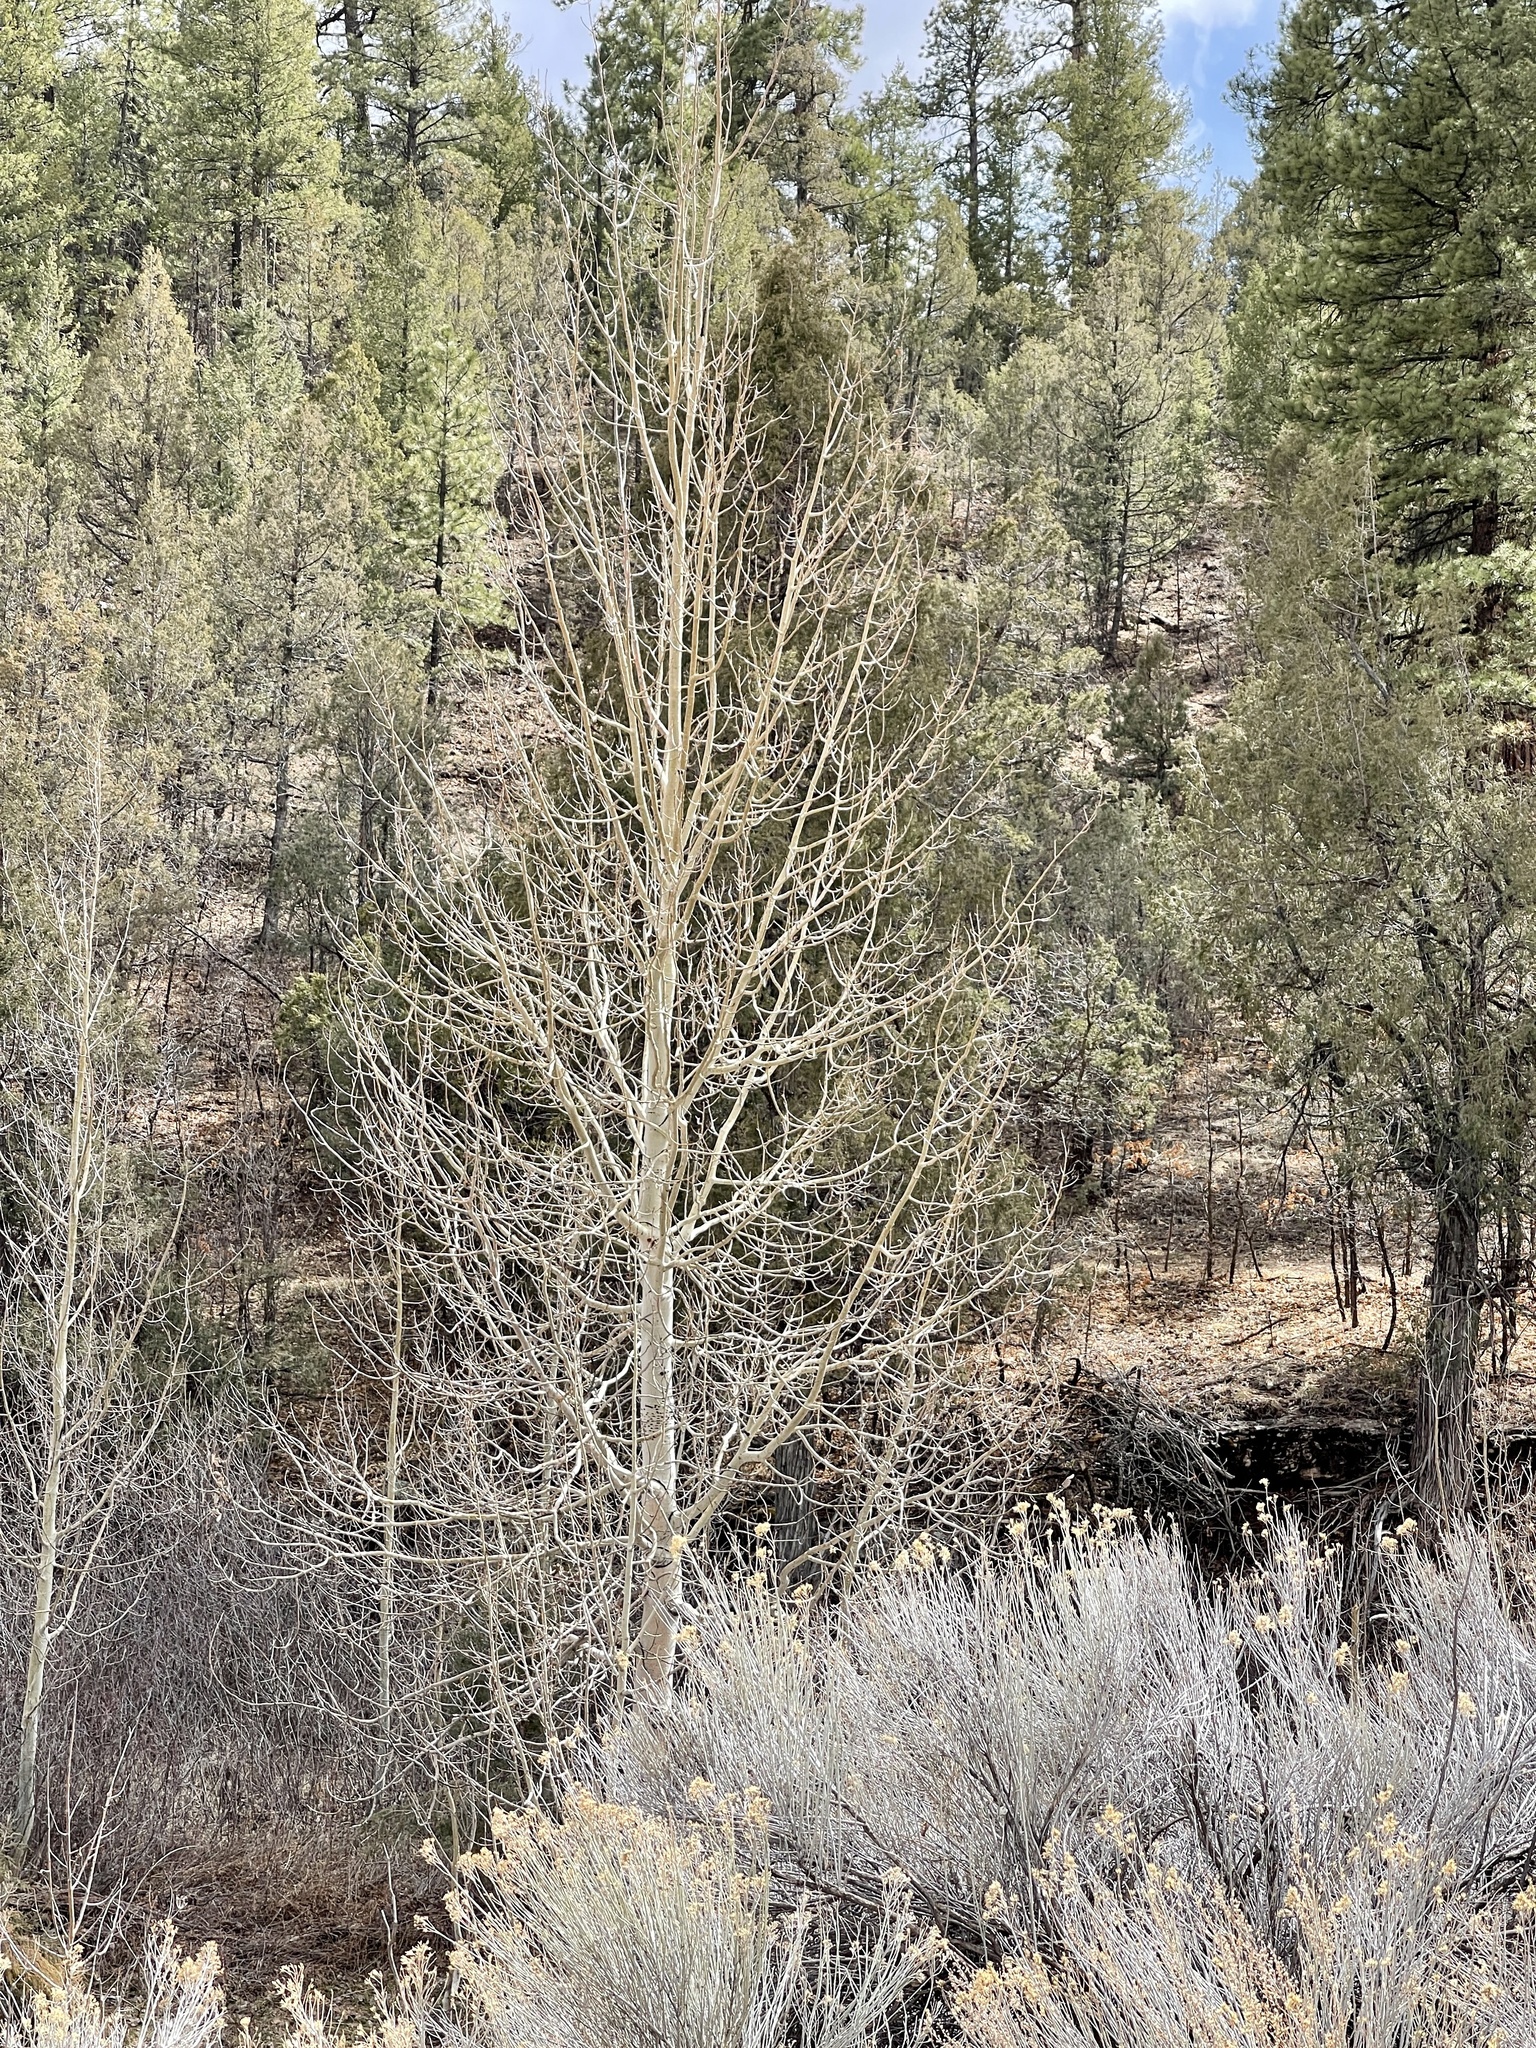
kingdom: Plantae
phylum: Tracheophyta
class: Magnoliopsida
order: Malpighiales
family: Salicaceae
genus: Populus
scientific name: Populus tremuloides
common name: Quaking aspen
